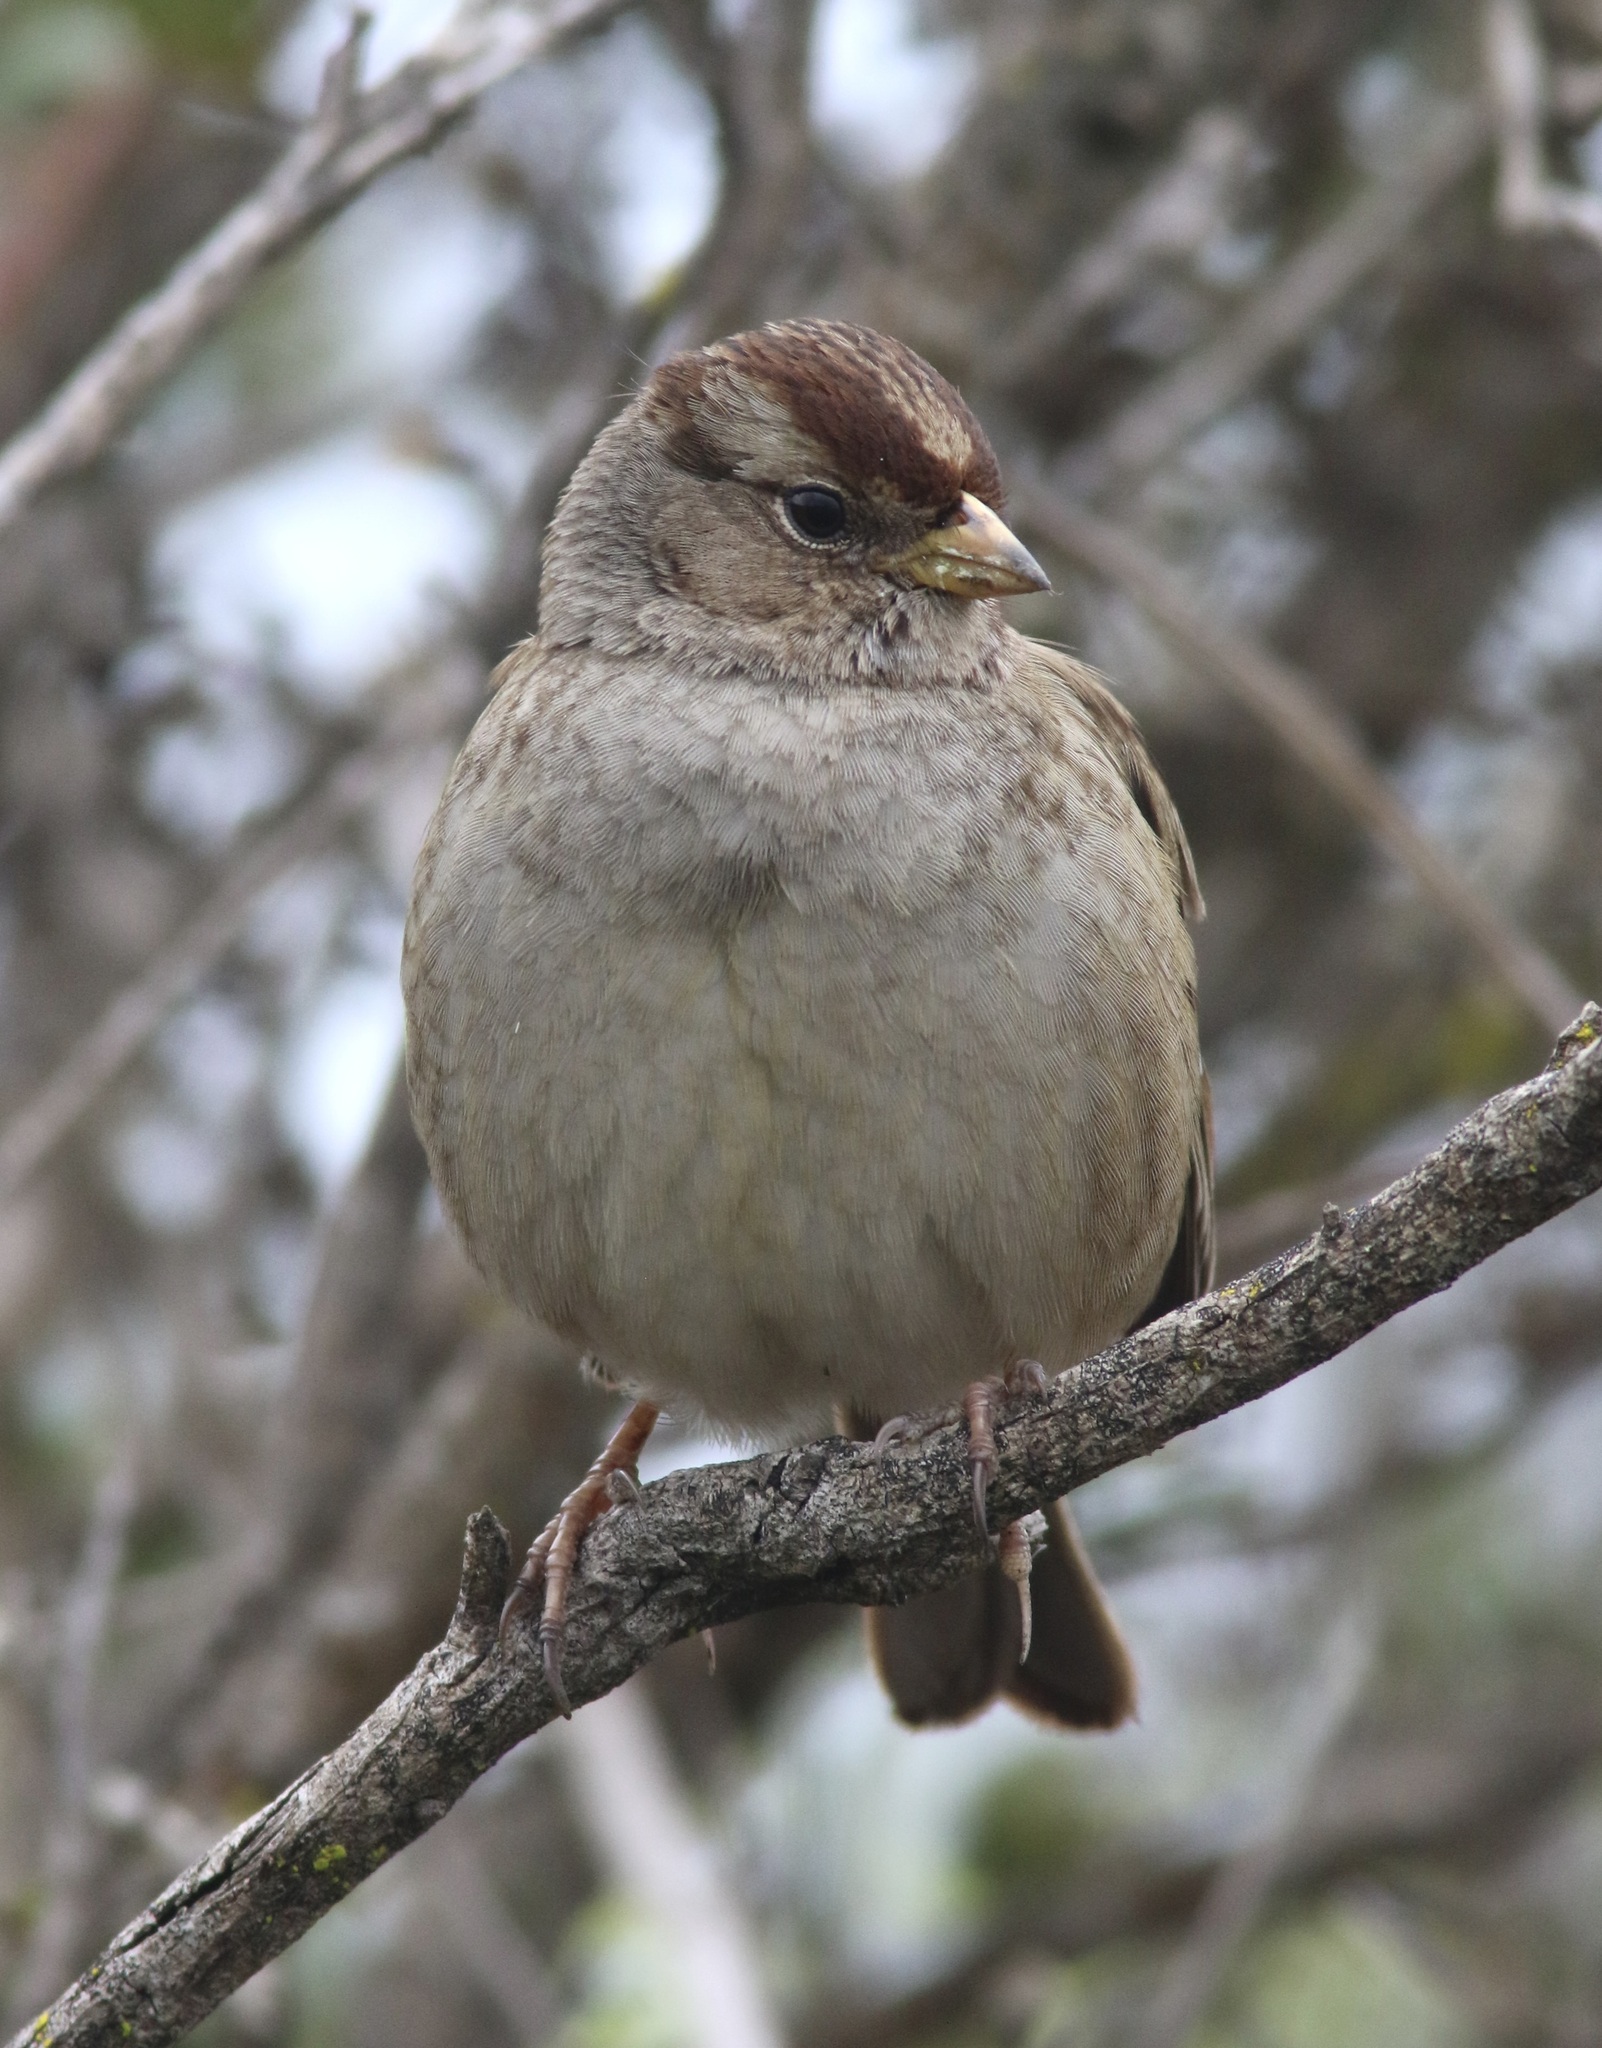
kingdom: Animalia
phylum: Chordata
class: Aves
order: Passeriformes
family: Passerellidae
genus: Zonotrichia
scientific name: Zonotrichia leucophrys
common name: White-crowned sparrow
